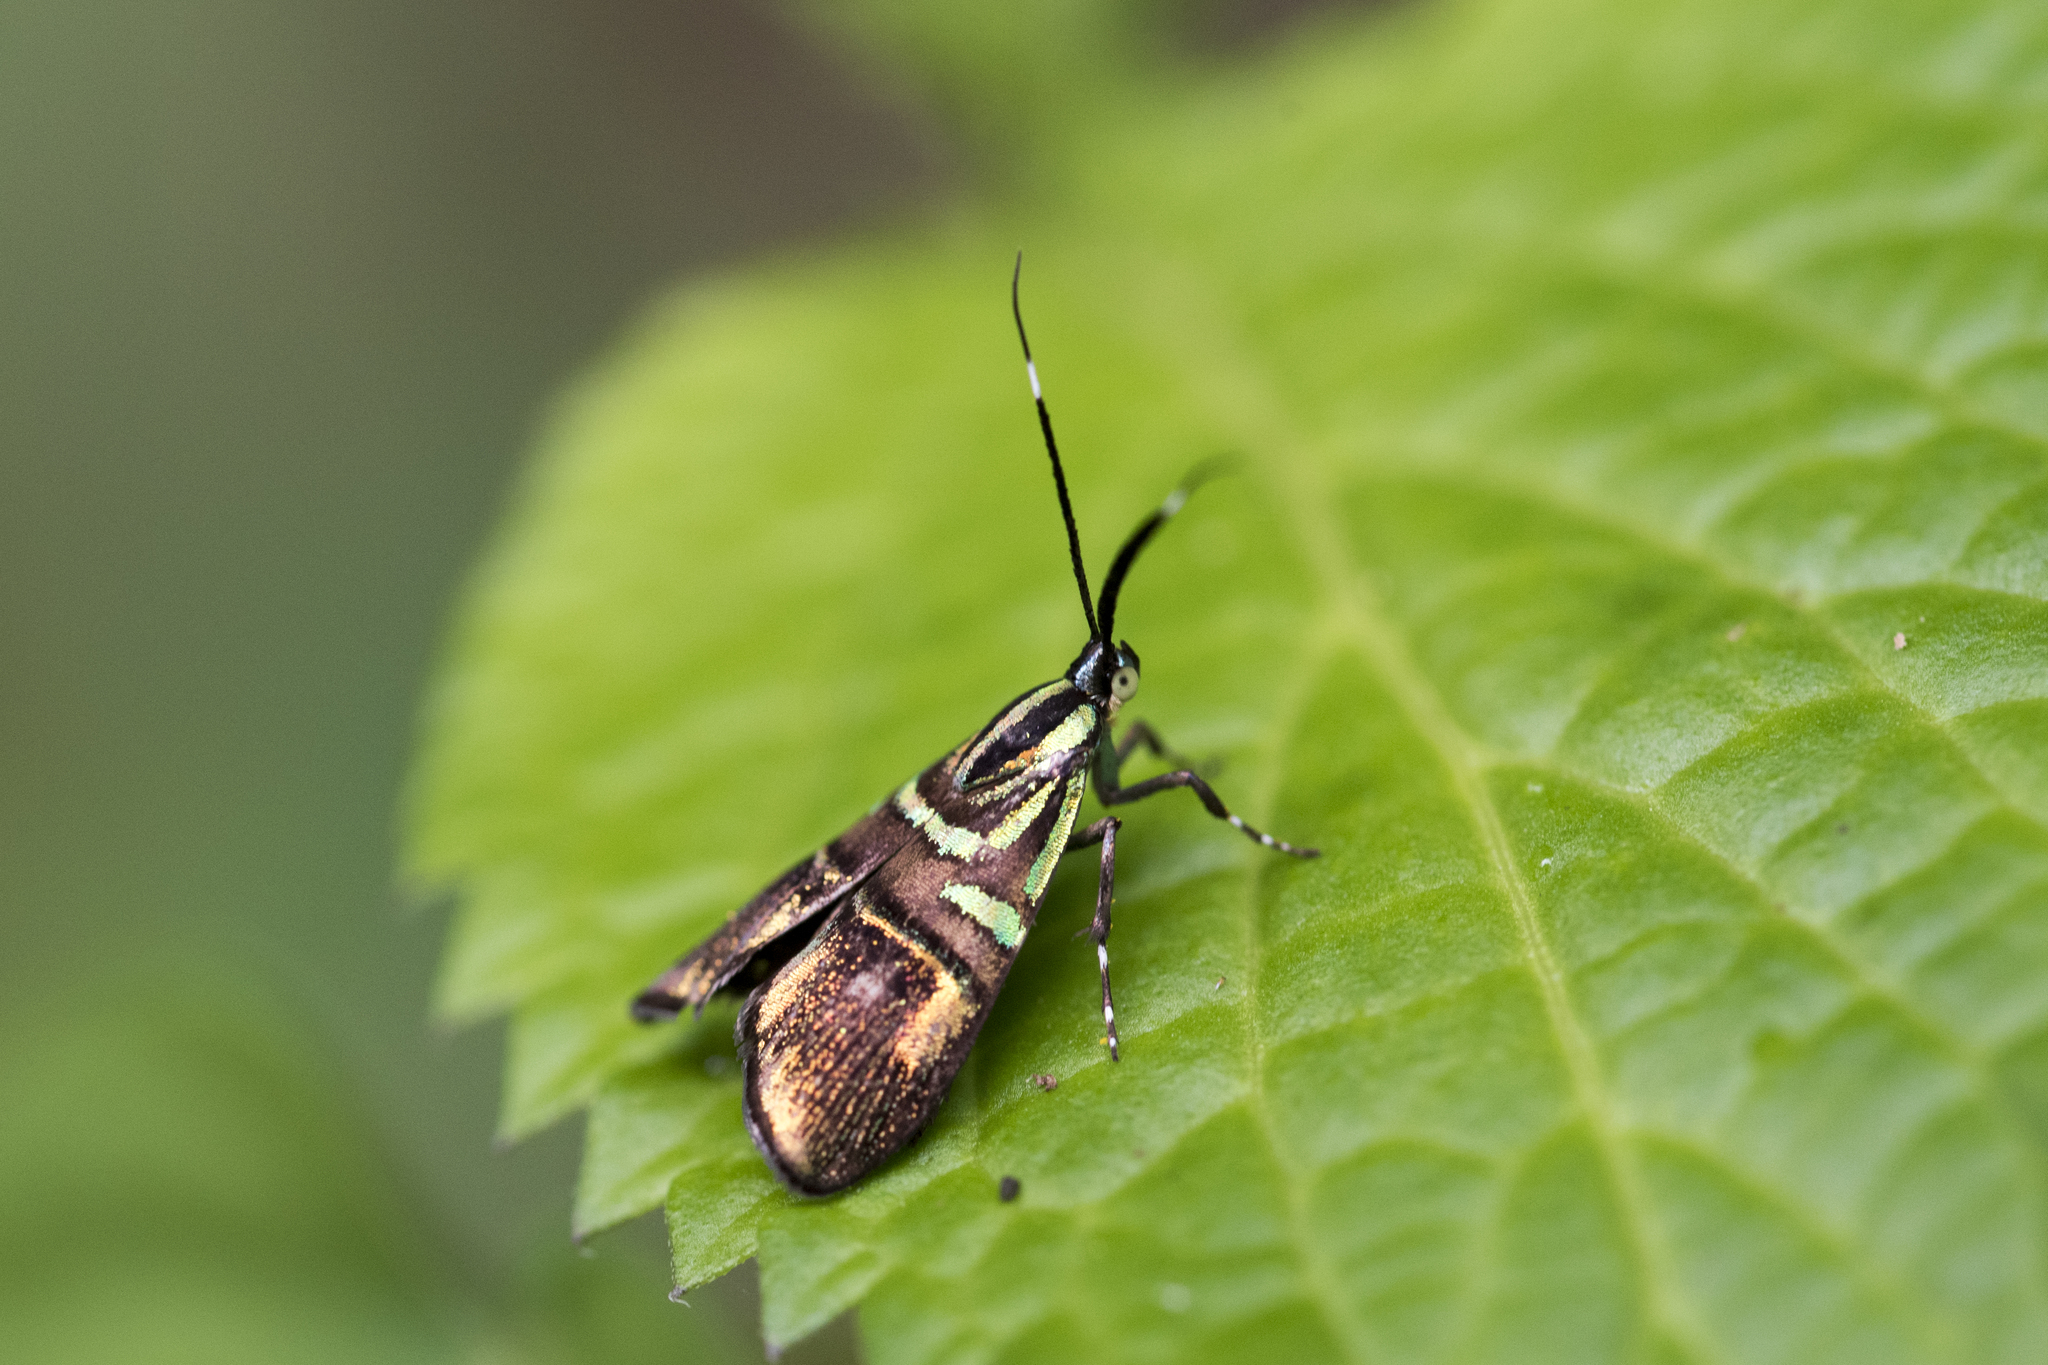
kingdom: Animalia
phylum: Arthropoda
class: Insecta
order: Lepidoptera
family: Choreutidae
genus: Saptha
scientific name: Saptha divitiosa
